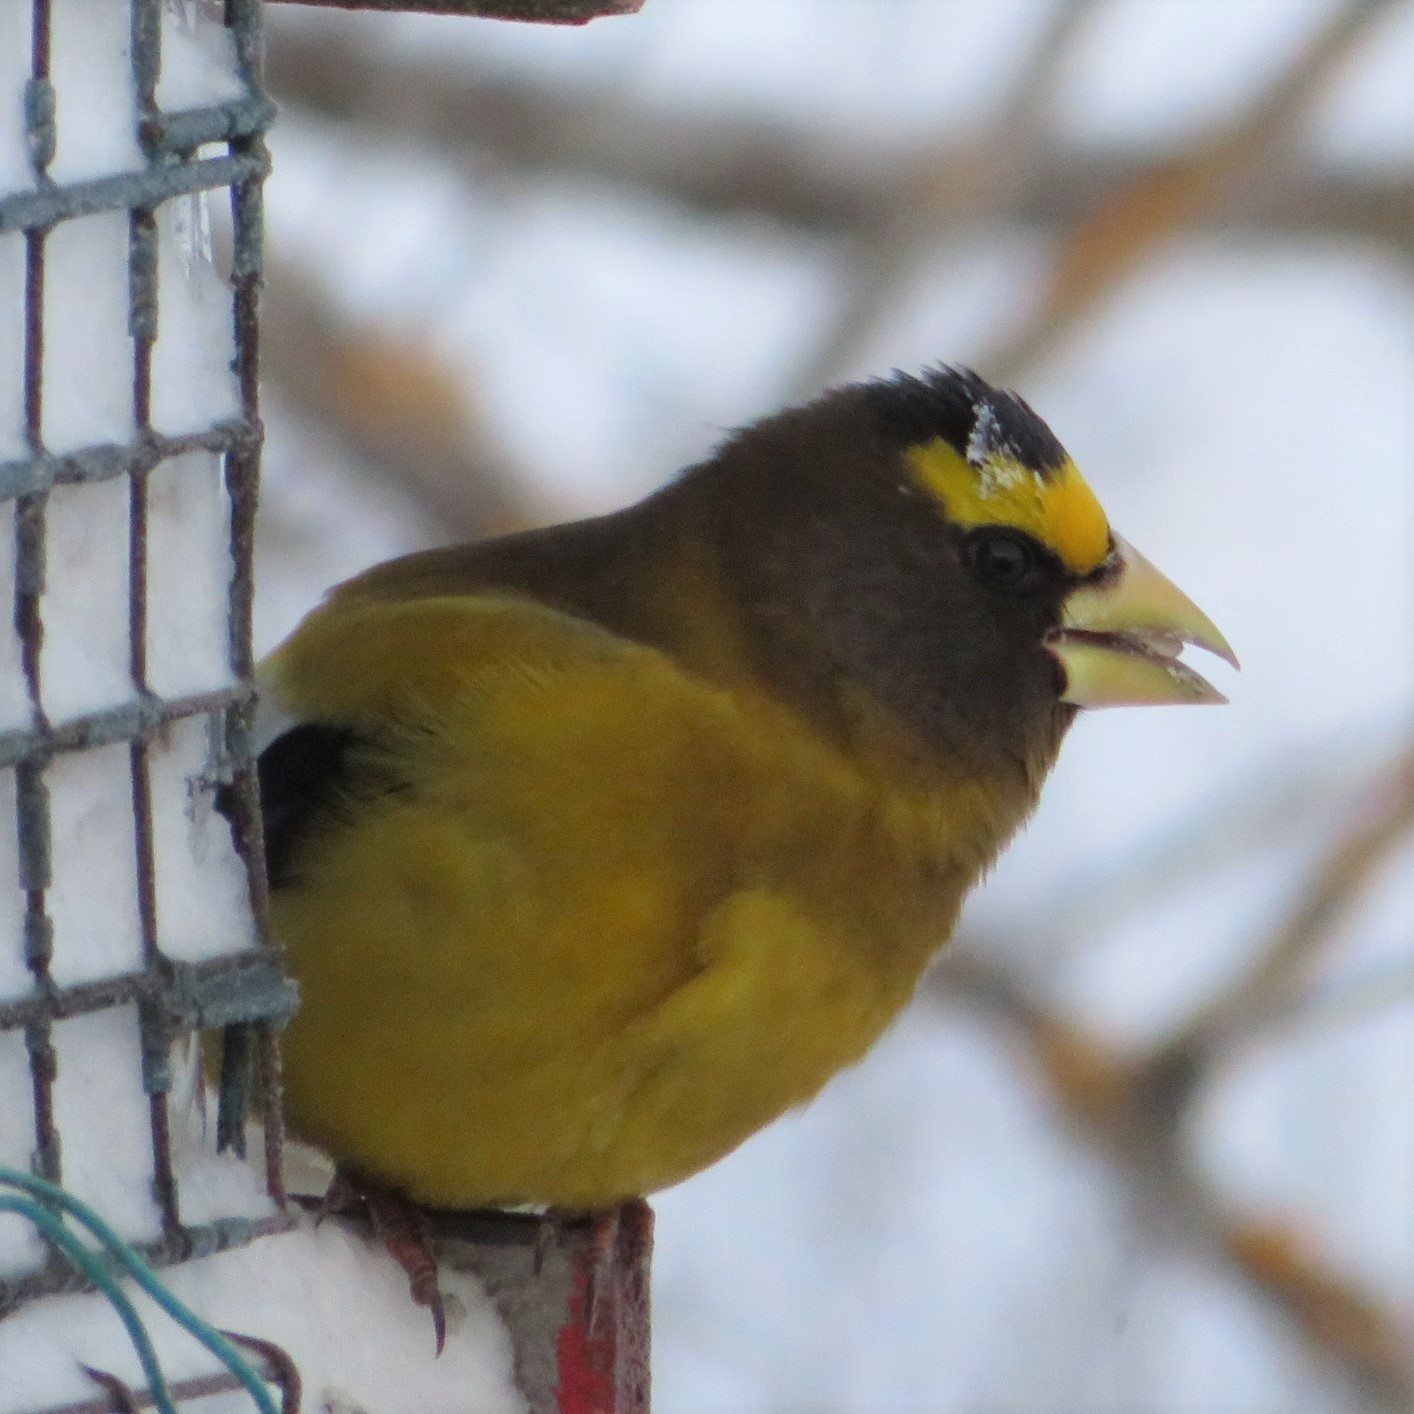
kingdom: Animalia
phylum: Chordata
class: Aves
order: Passeriformes
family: Fringillidae
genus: Hesperiphona
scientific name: Hesperiphona vespertina
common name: Evening grosbeak
